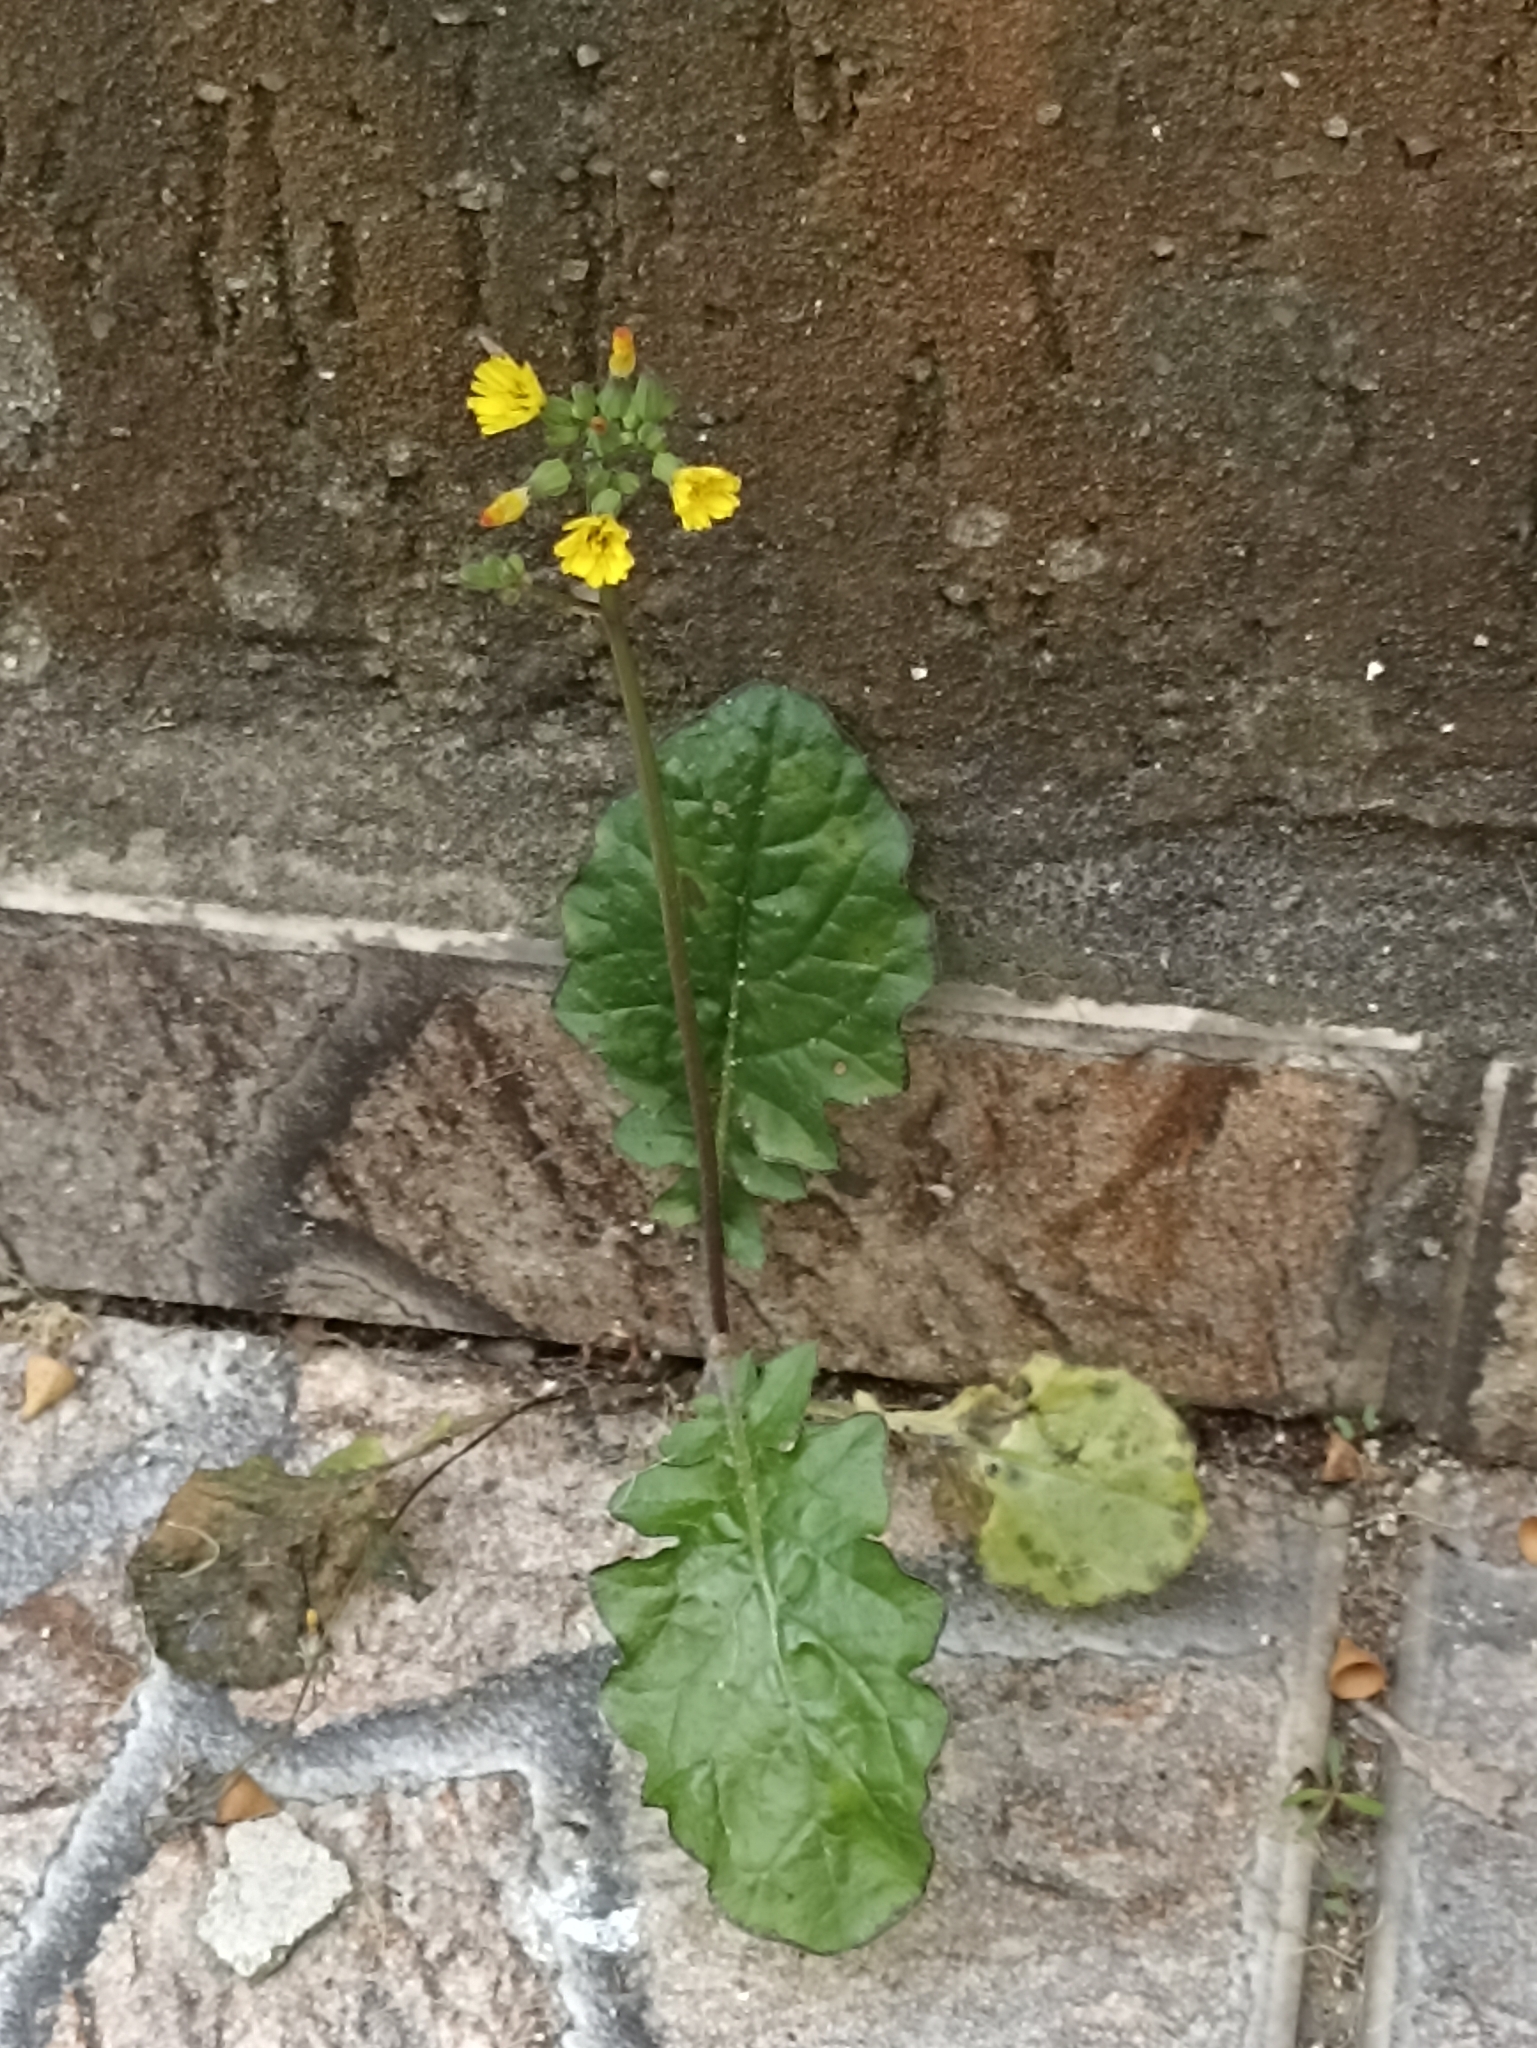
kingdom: Plantae
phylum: Tracheophyta
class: Magnoliopsida
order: Asterales
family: Asteraceae
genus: Youngia
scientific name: Youngia japonica
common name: Oriental false hawksbeard
